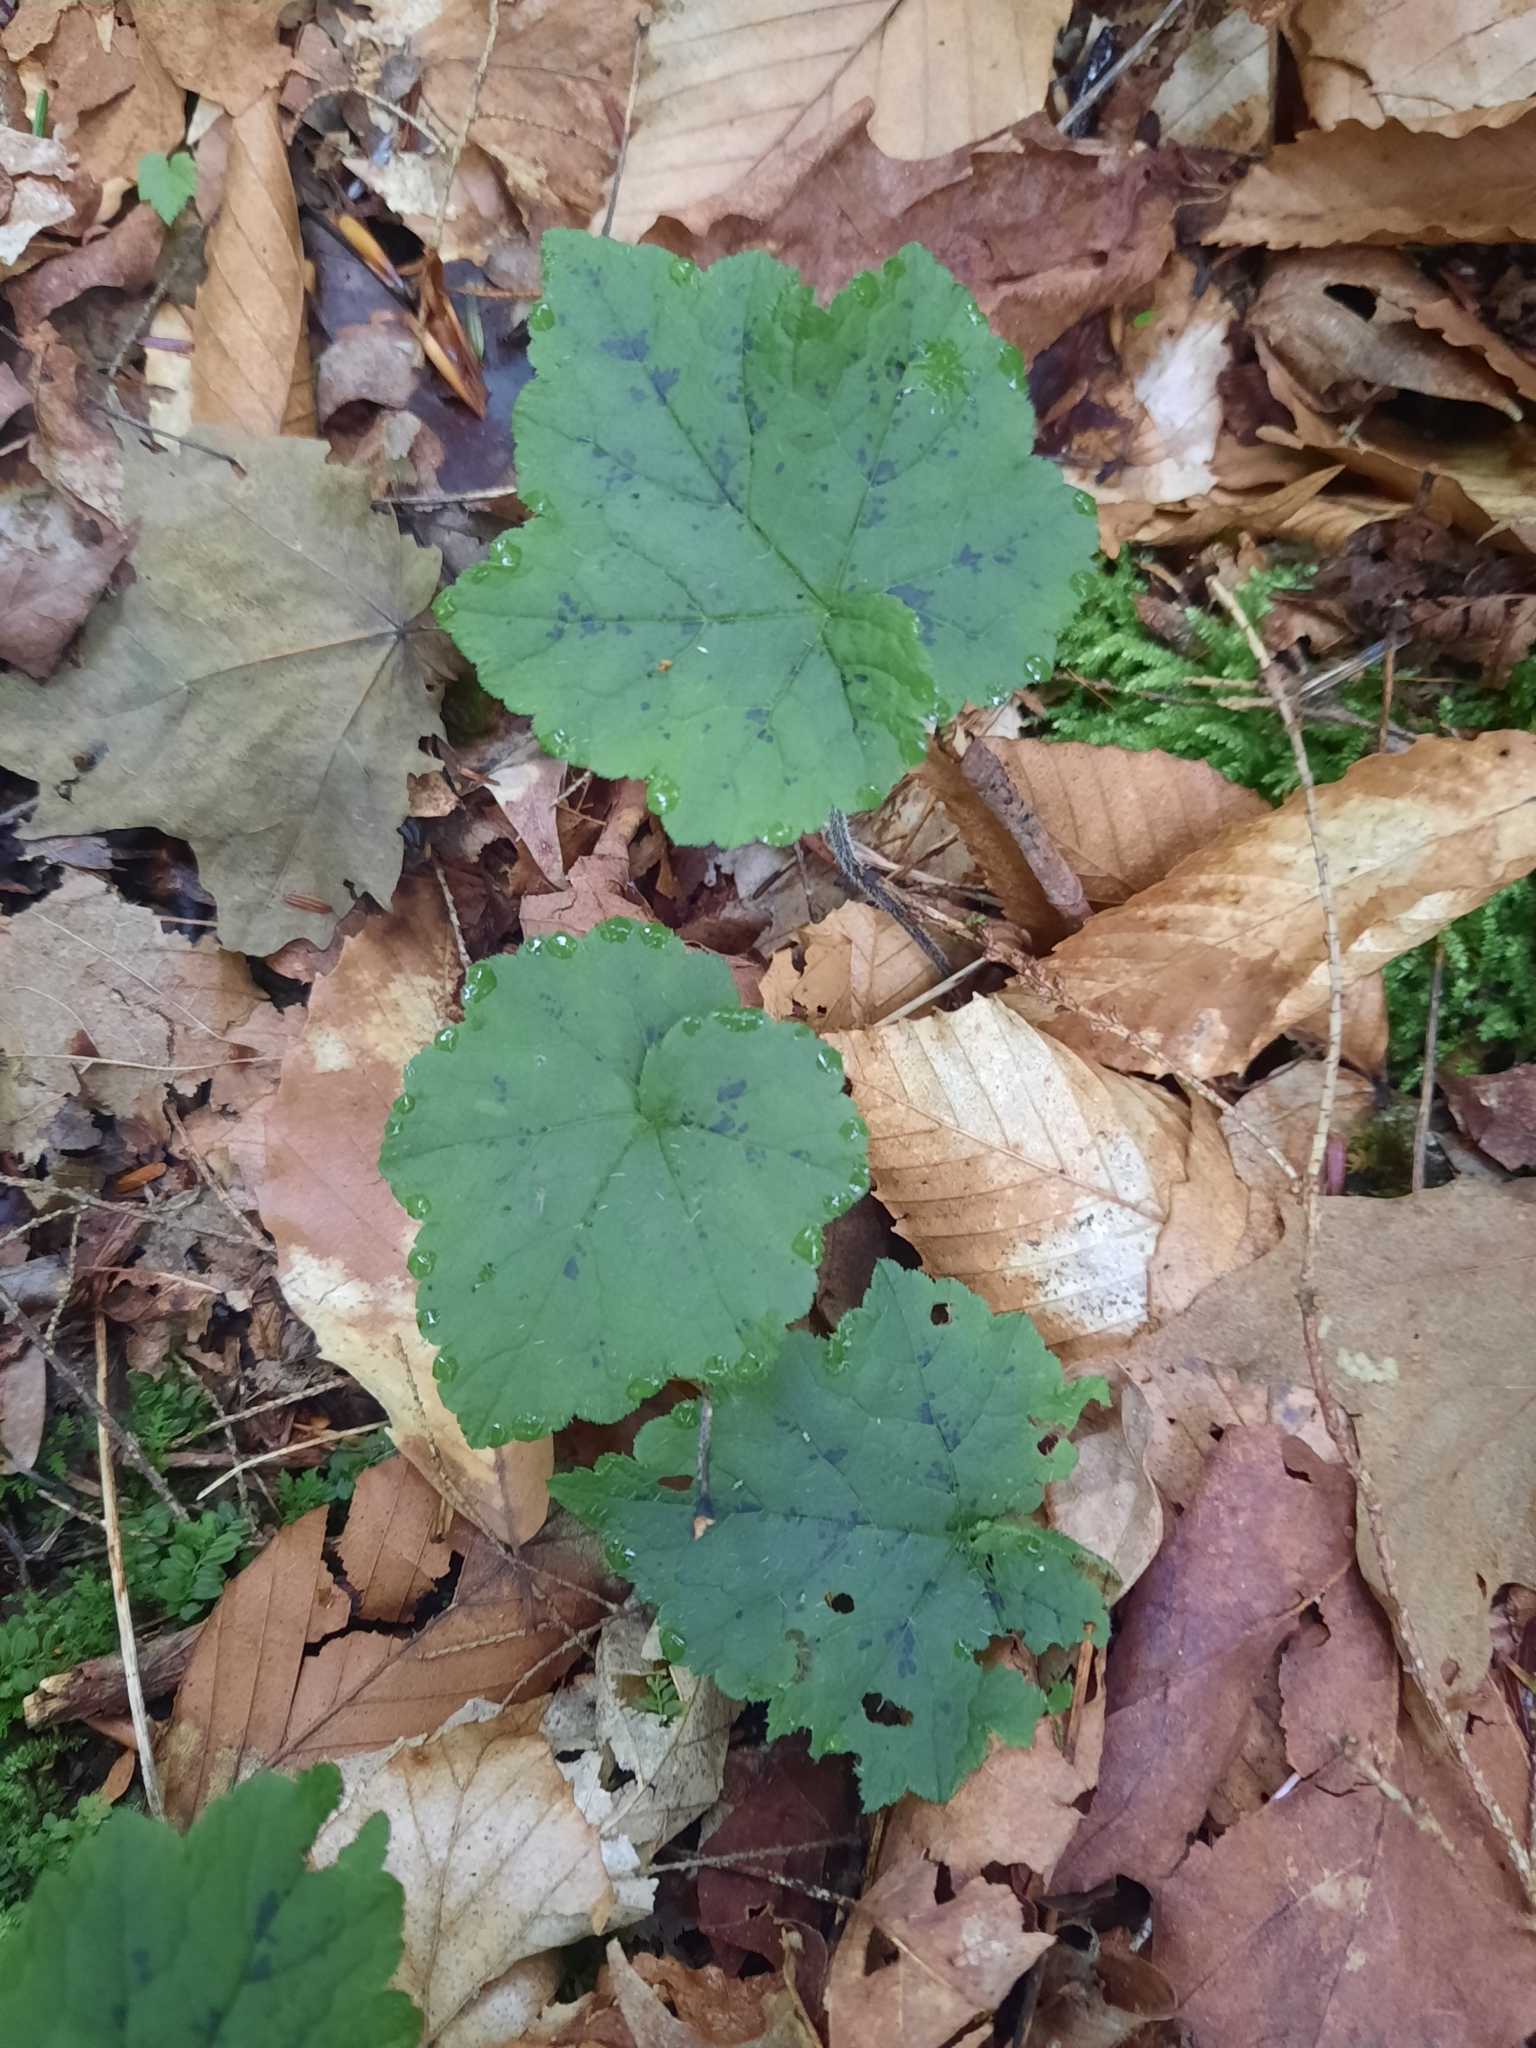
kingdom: Plantae
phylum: Tracheophyta
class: Magnoliopsida
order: Saxifragales
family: Saxifragaceae
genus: Tiarella
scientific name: Tiarella stolonifera
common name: Stoloniferous foamflower
